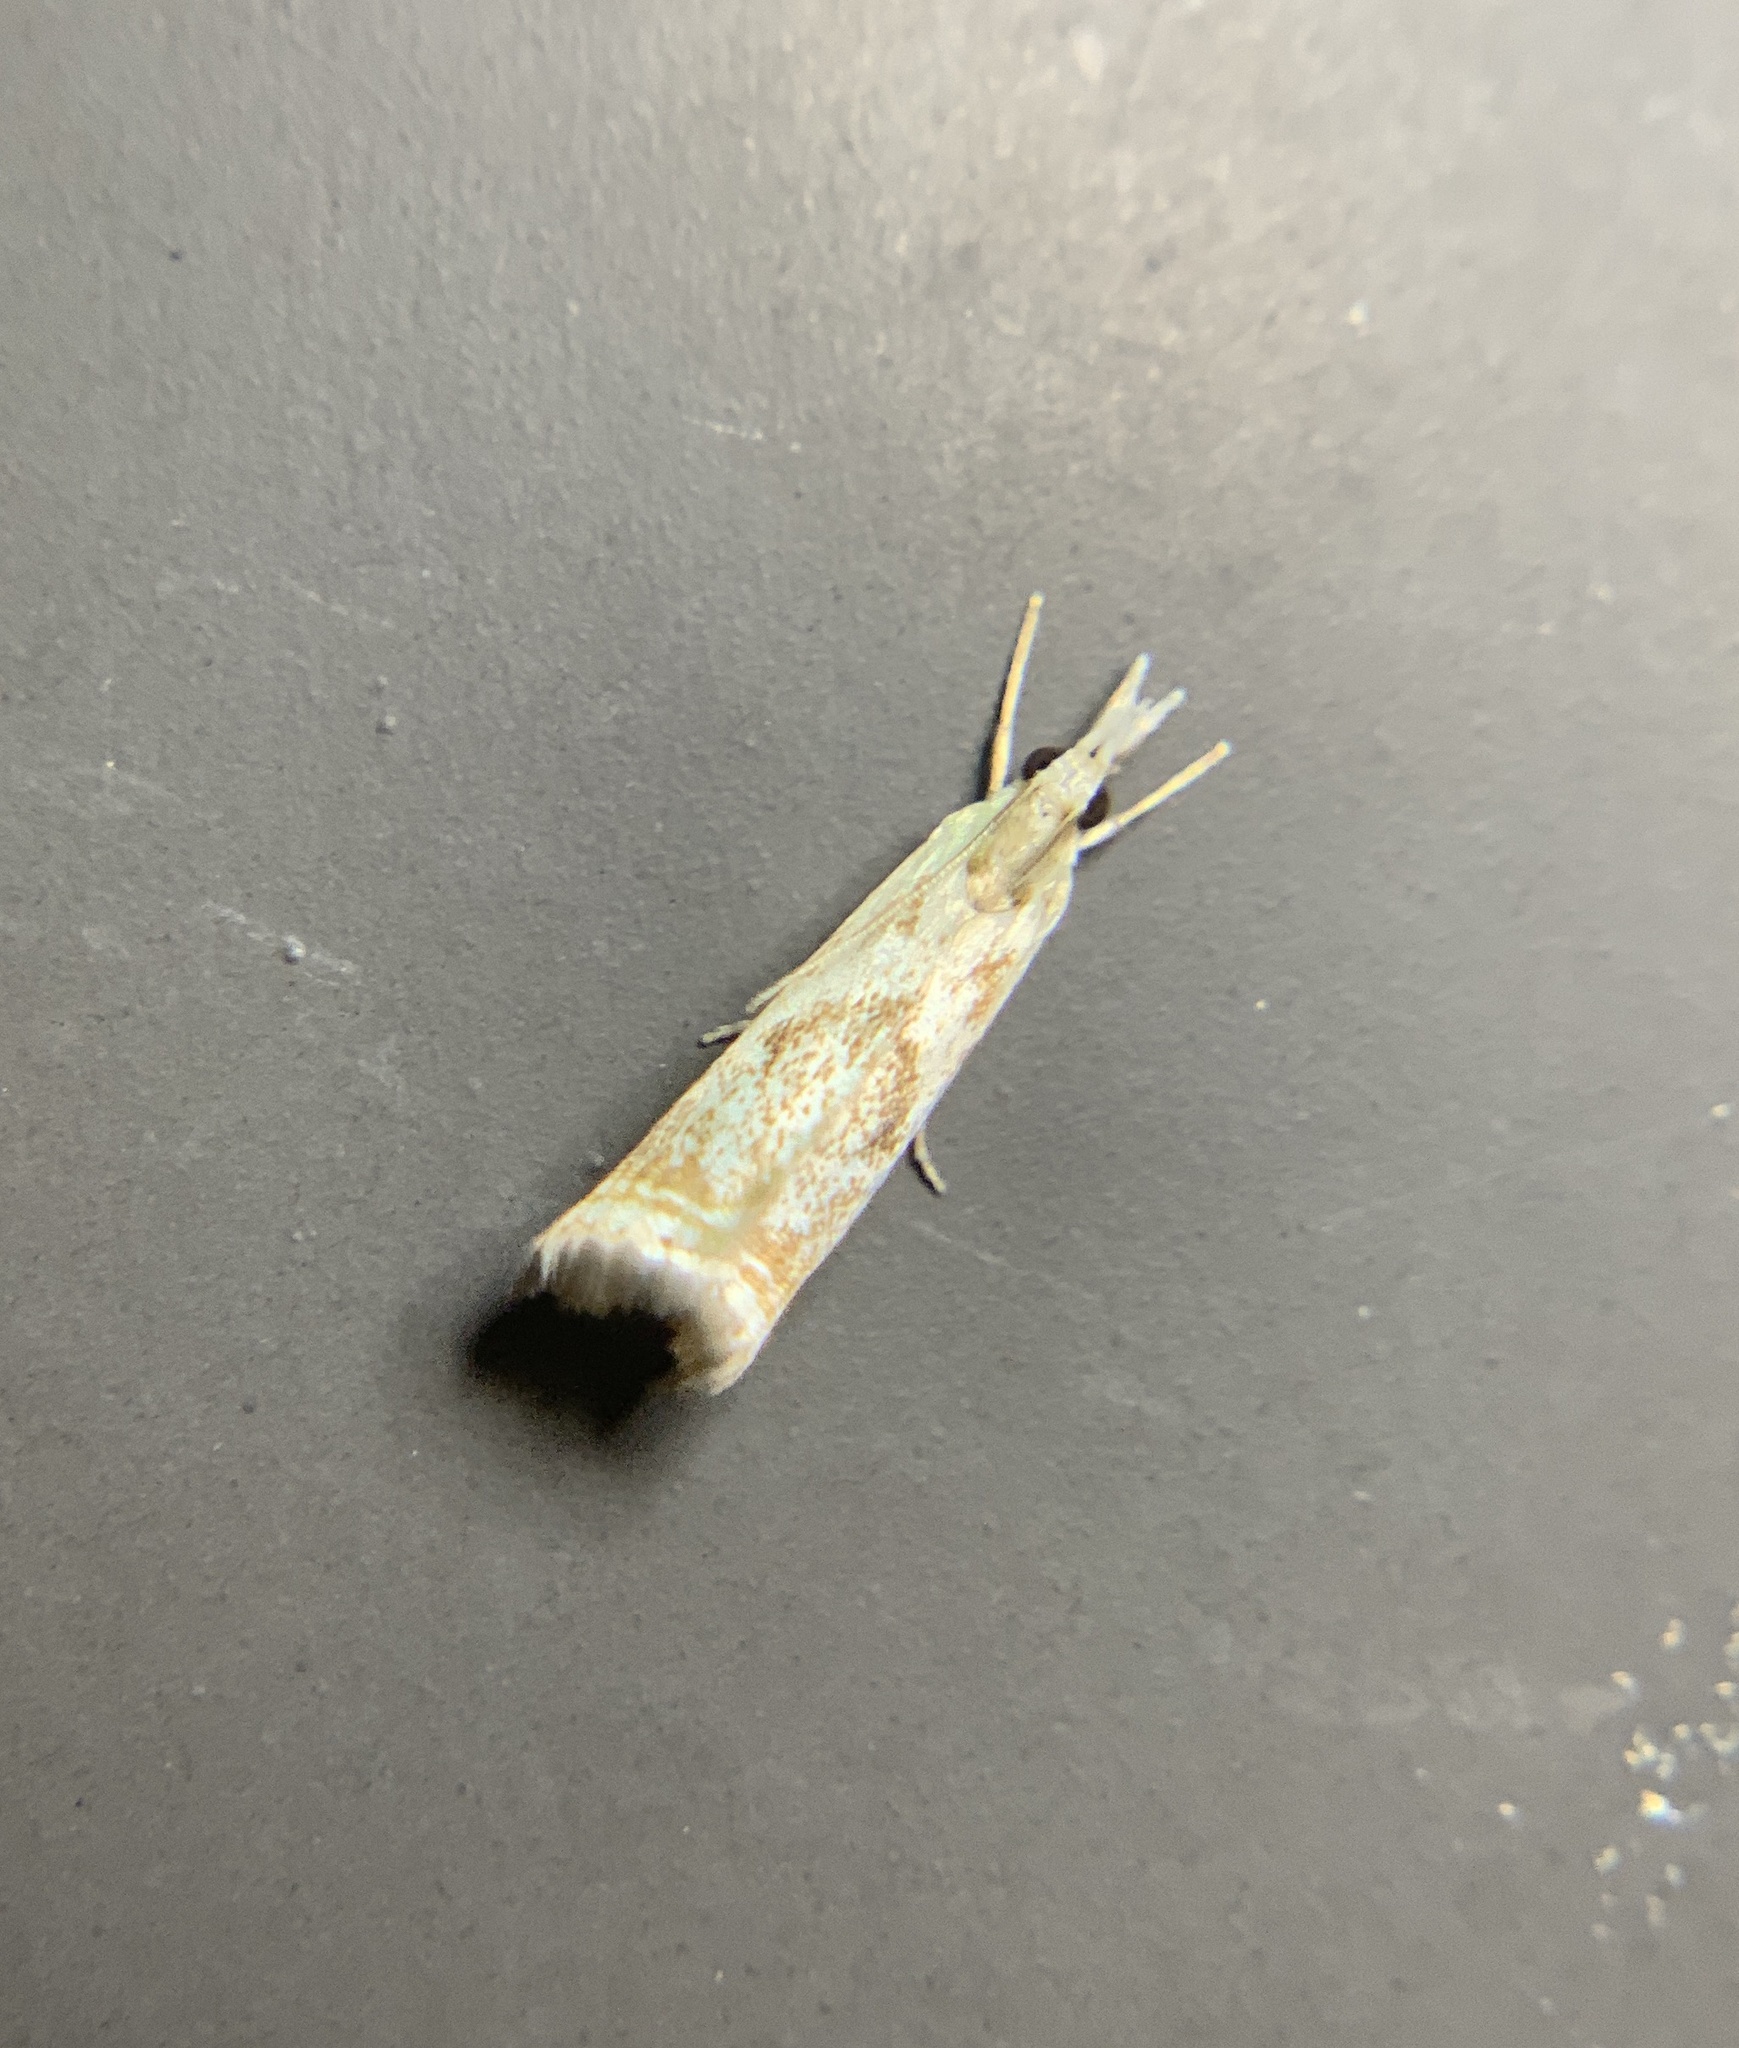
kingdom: Animalia
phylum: Arthropoda
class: Insecta
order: Lepidoptera
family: Crambidae
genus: Microcrambus
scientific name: Microcrambus elegans
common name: Elegant grass-veneer
